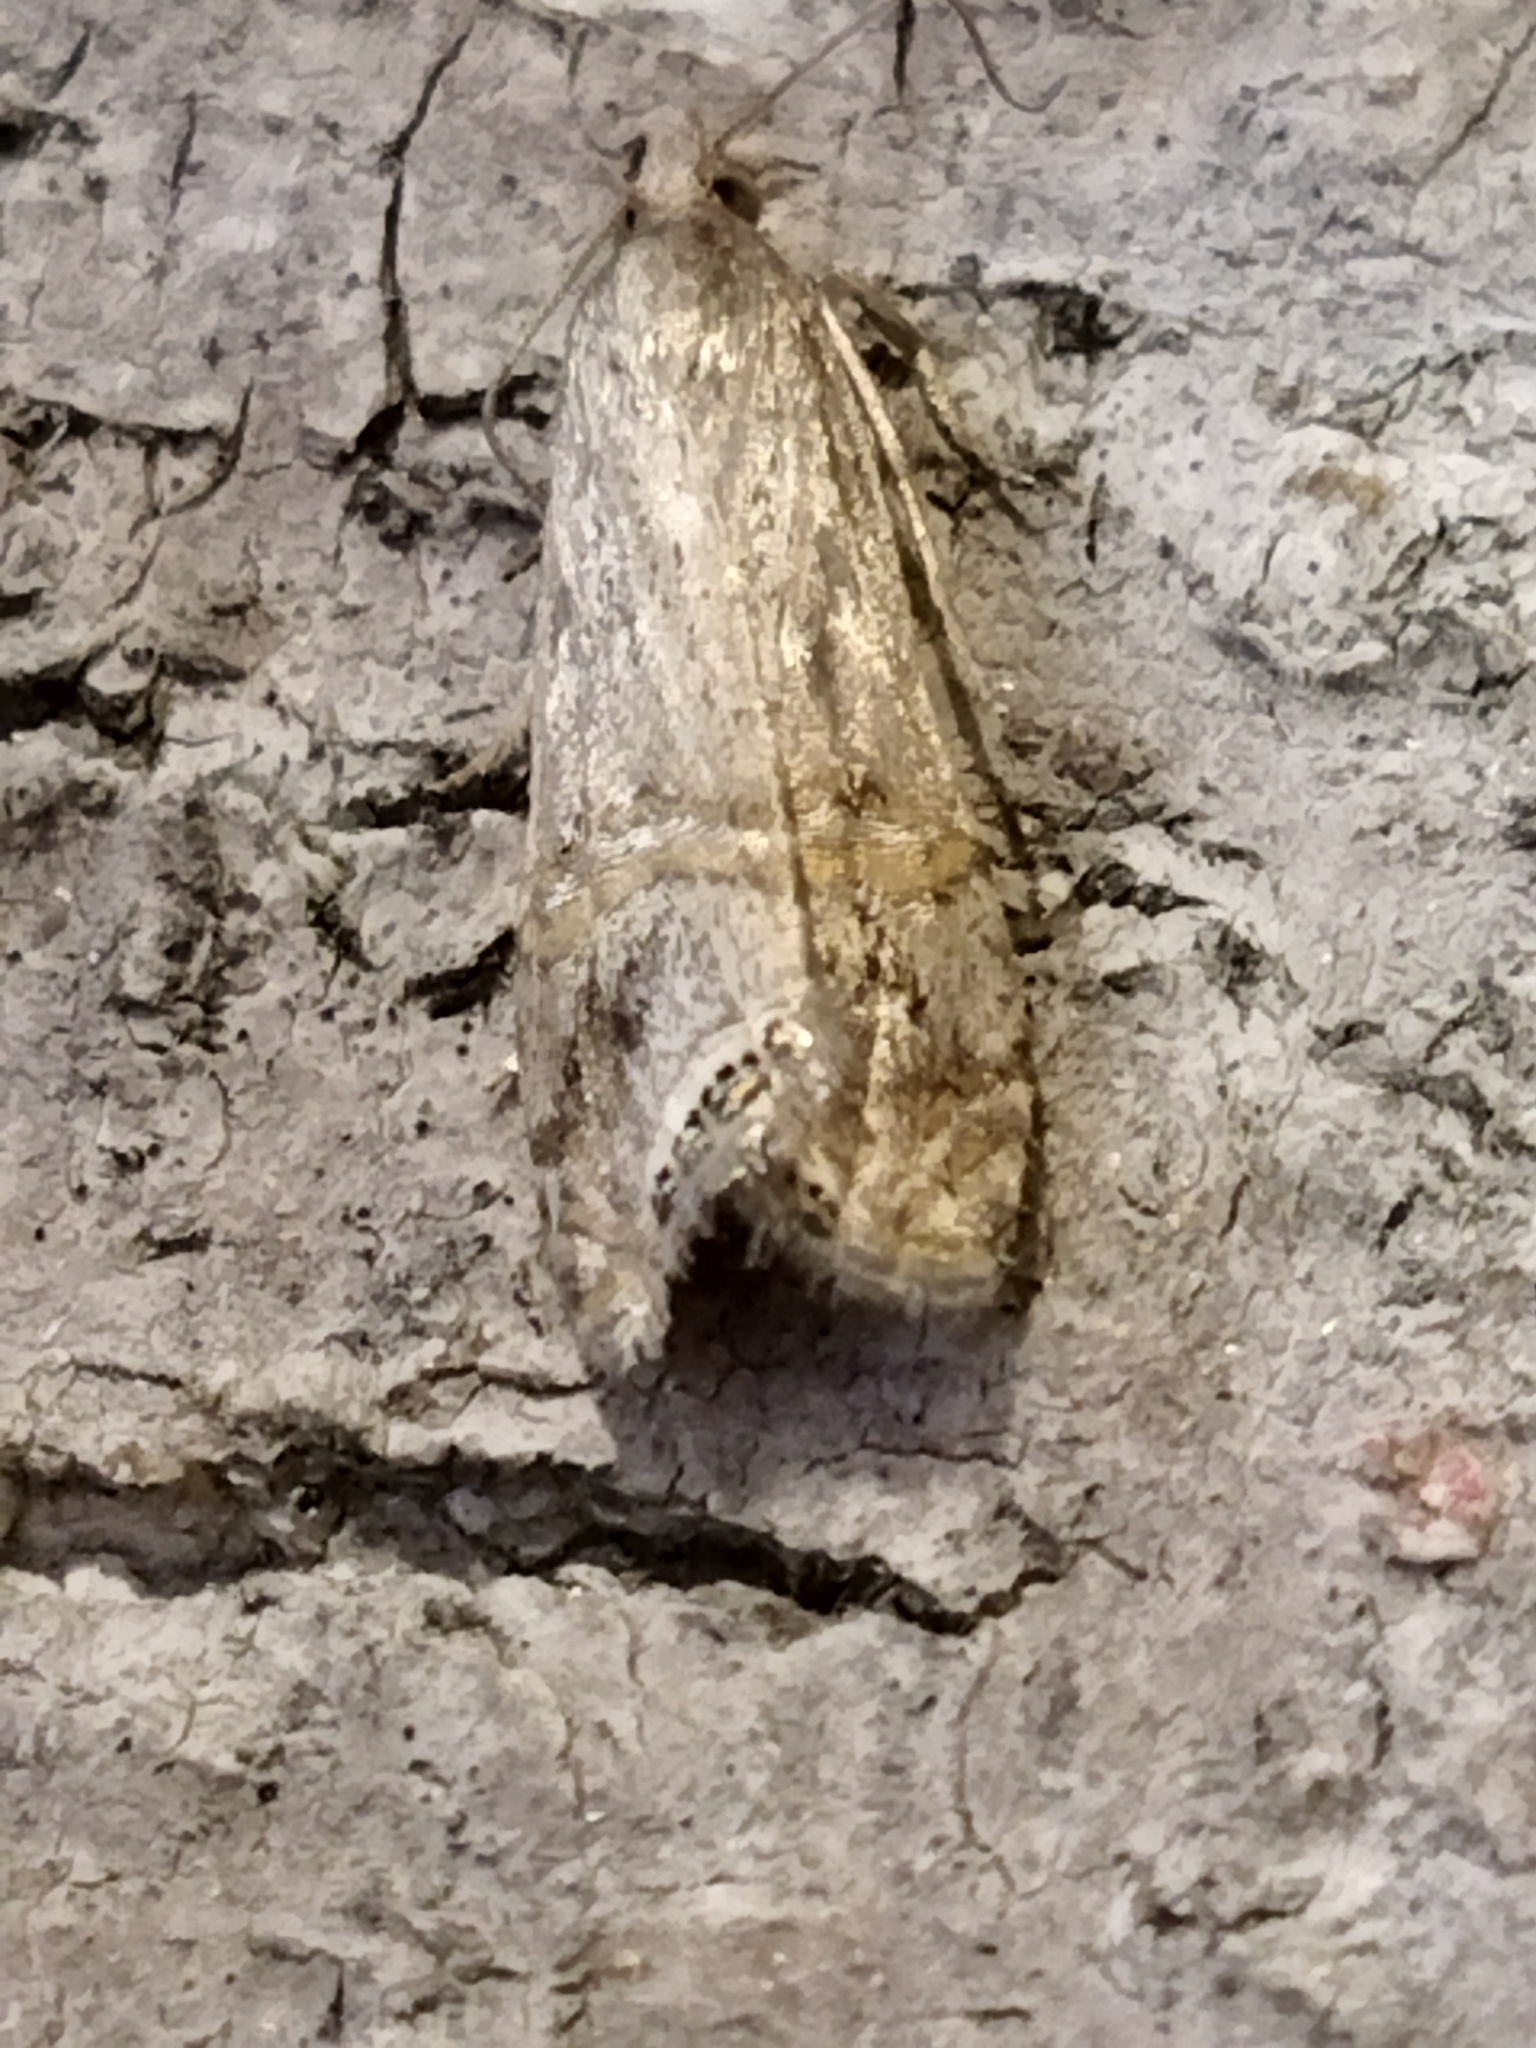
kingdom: Animalia
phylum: Arthropoda
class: Insecta
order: Lepidoptera
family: Crambidae
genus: Euchromius
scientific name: Euchromius ocellea
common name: Necklace veneer moth
